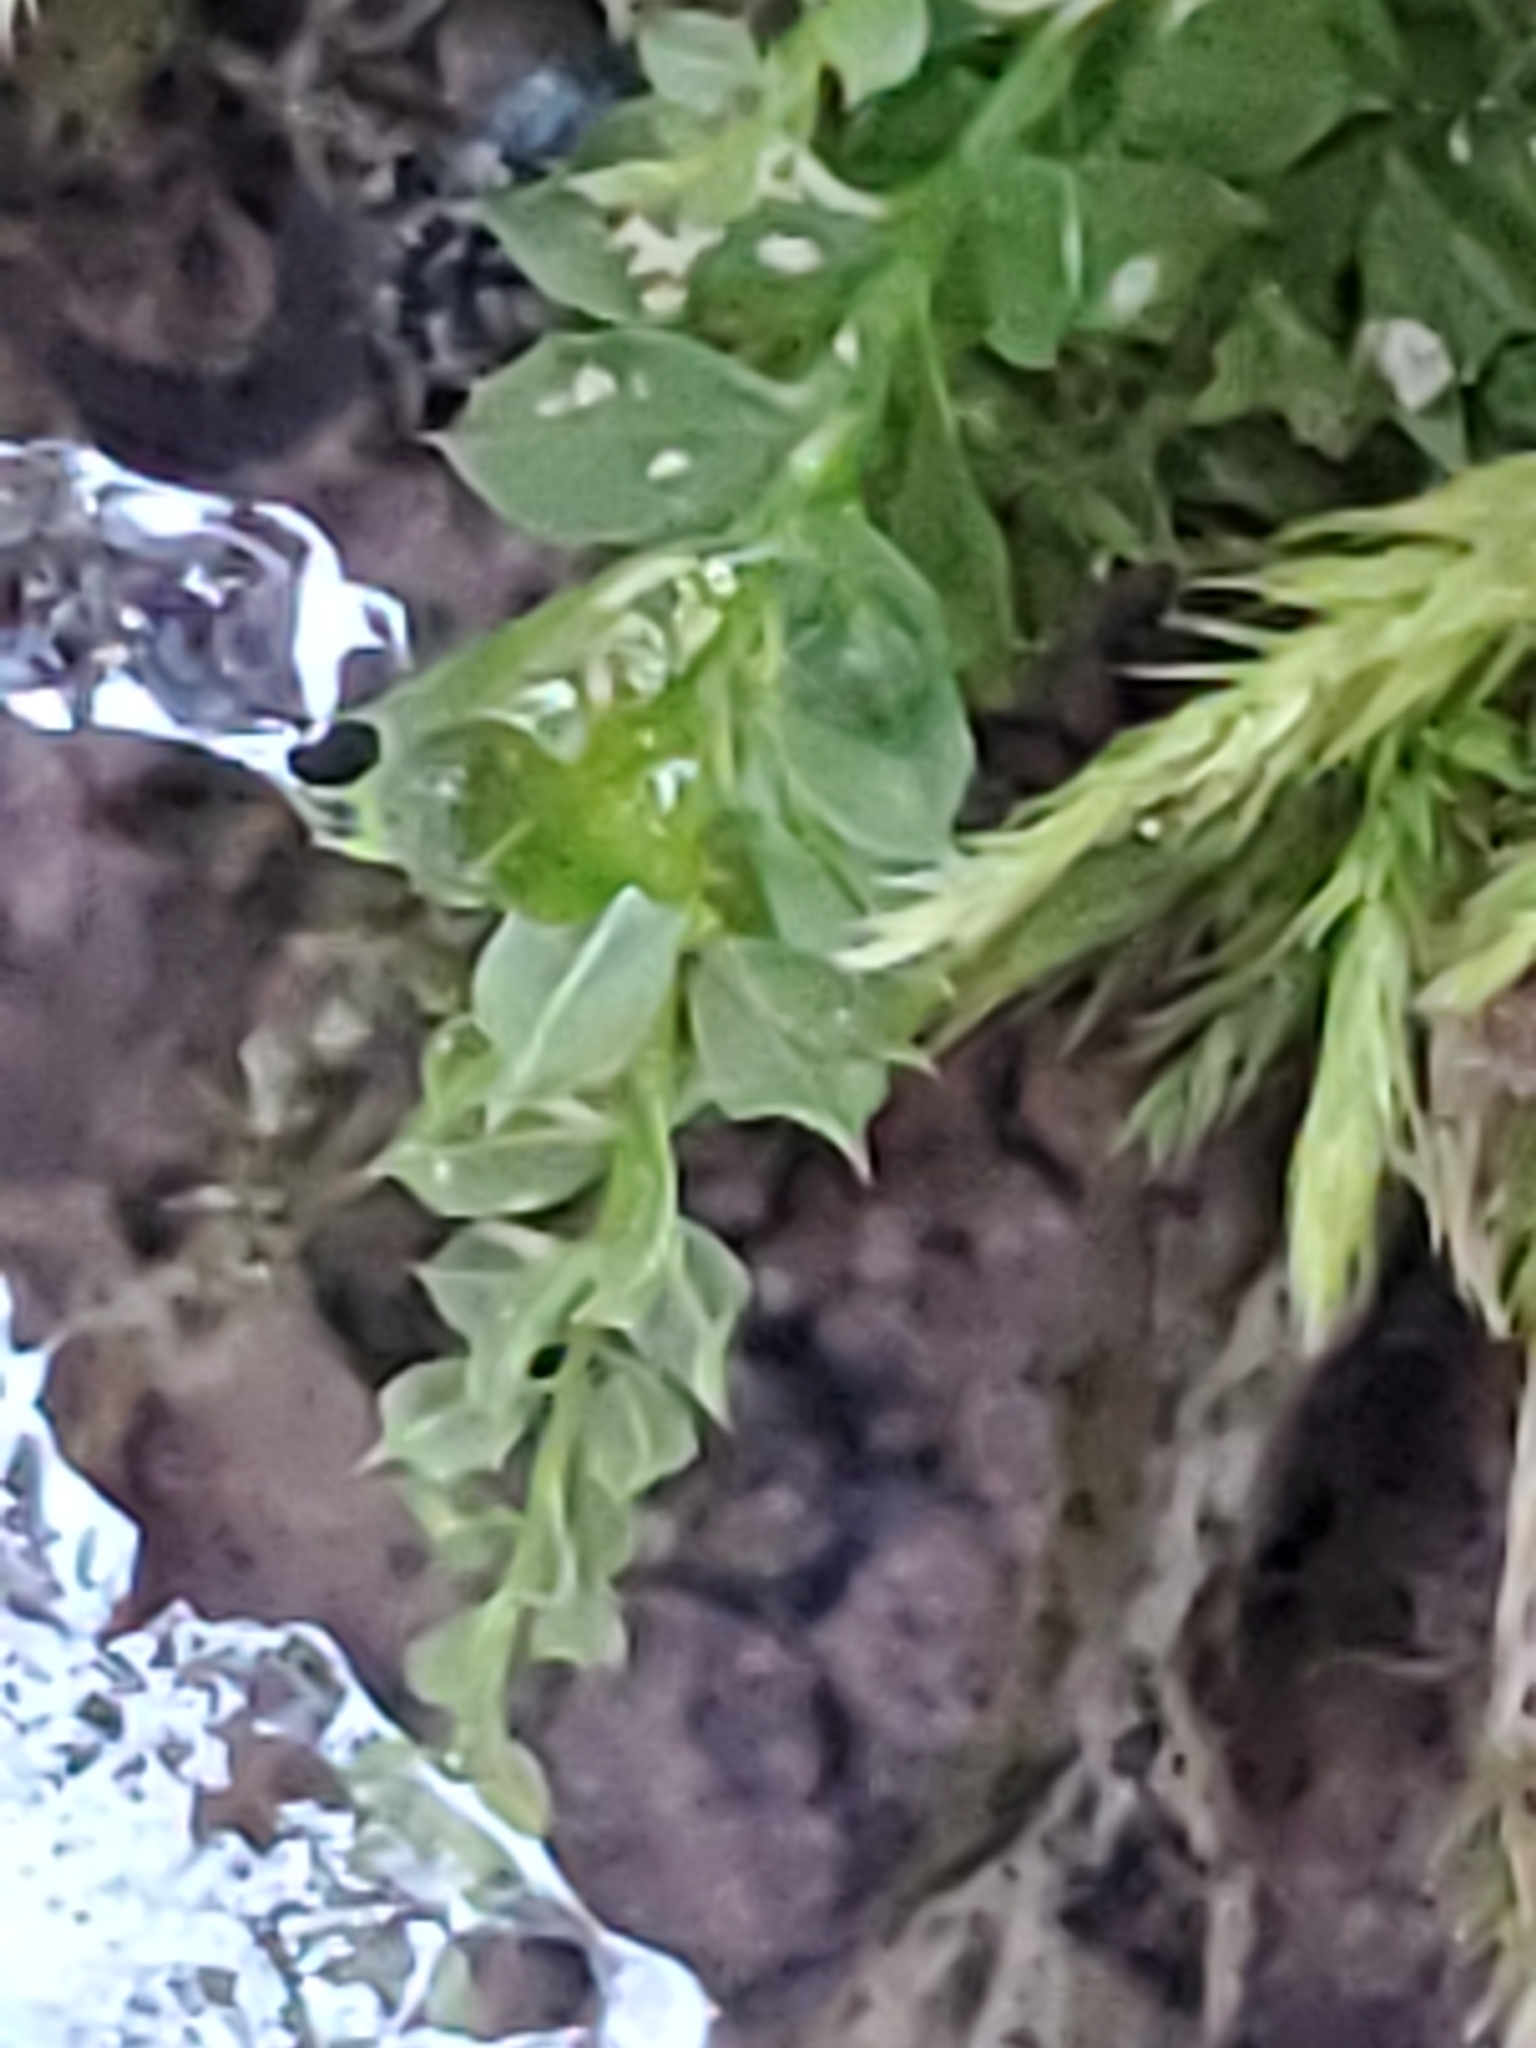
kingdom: Plantae
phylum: Bryophyta
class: Bryopsida
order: Bryales
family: Mniaceae
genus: Plagiomnium
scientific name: Plagiomnium cuspidatum
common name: Woodsy leafy moss
